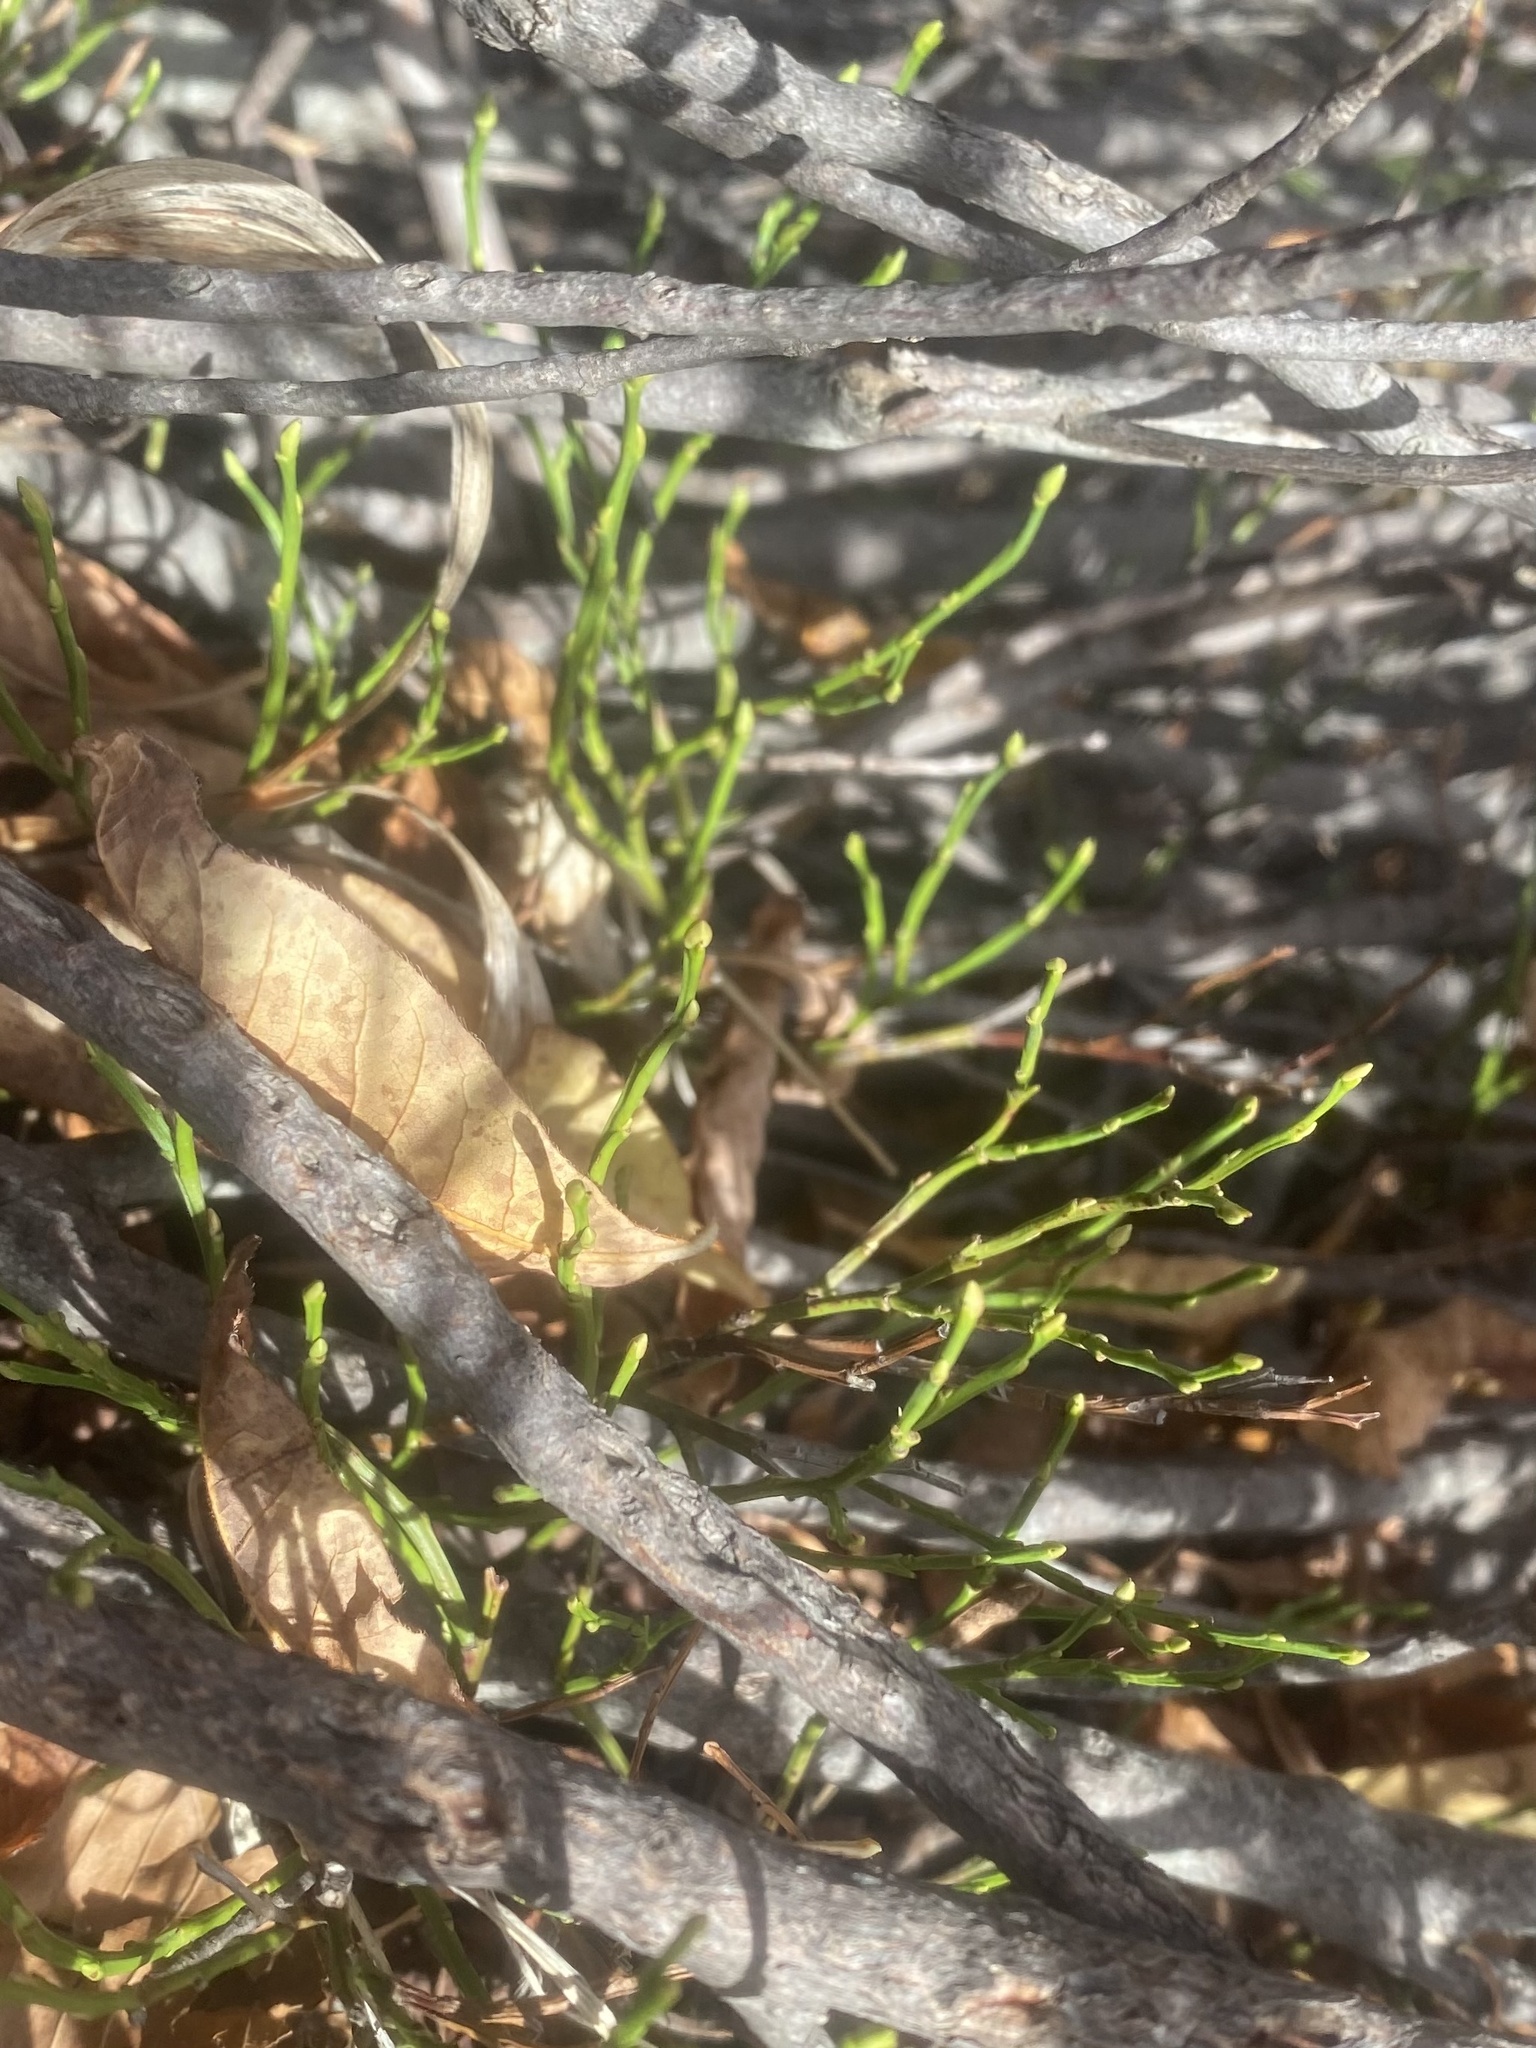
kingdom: Plantae
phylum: Tracheophyta
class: Magnoliopsida
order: Ericales
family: Ericaceae
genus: Vaccinium
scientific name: Vaccinium myrtillus
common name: Bilberry
